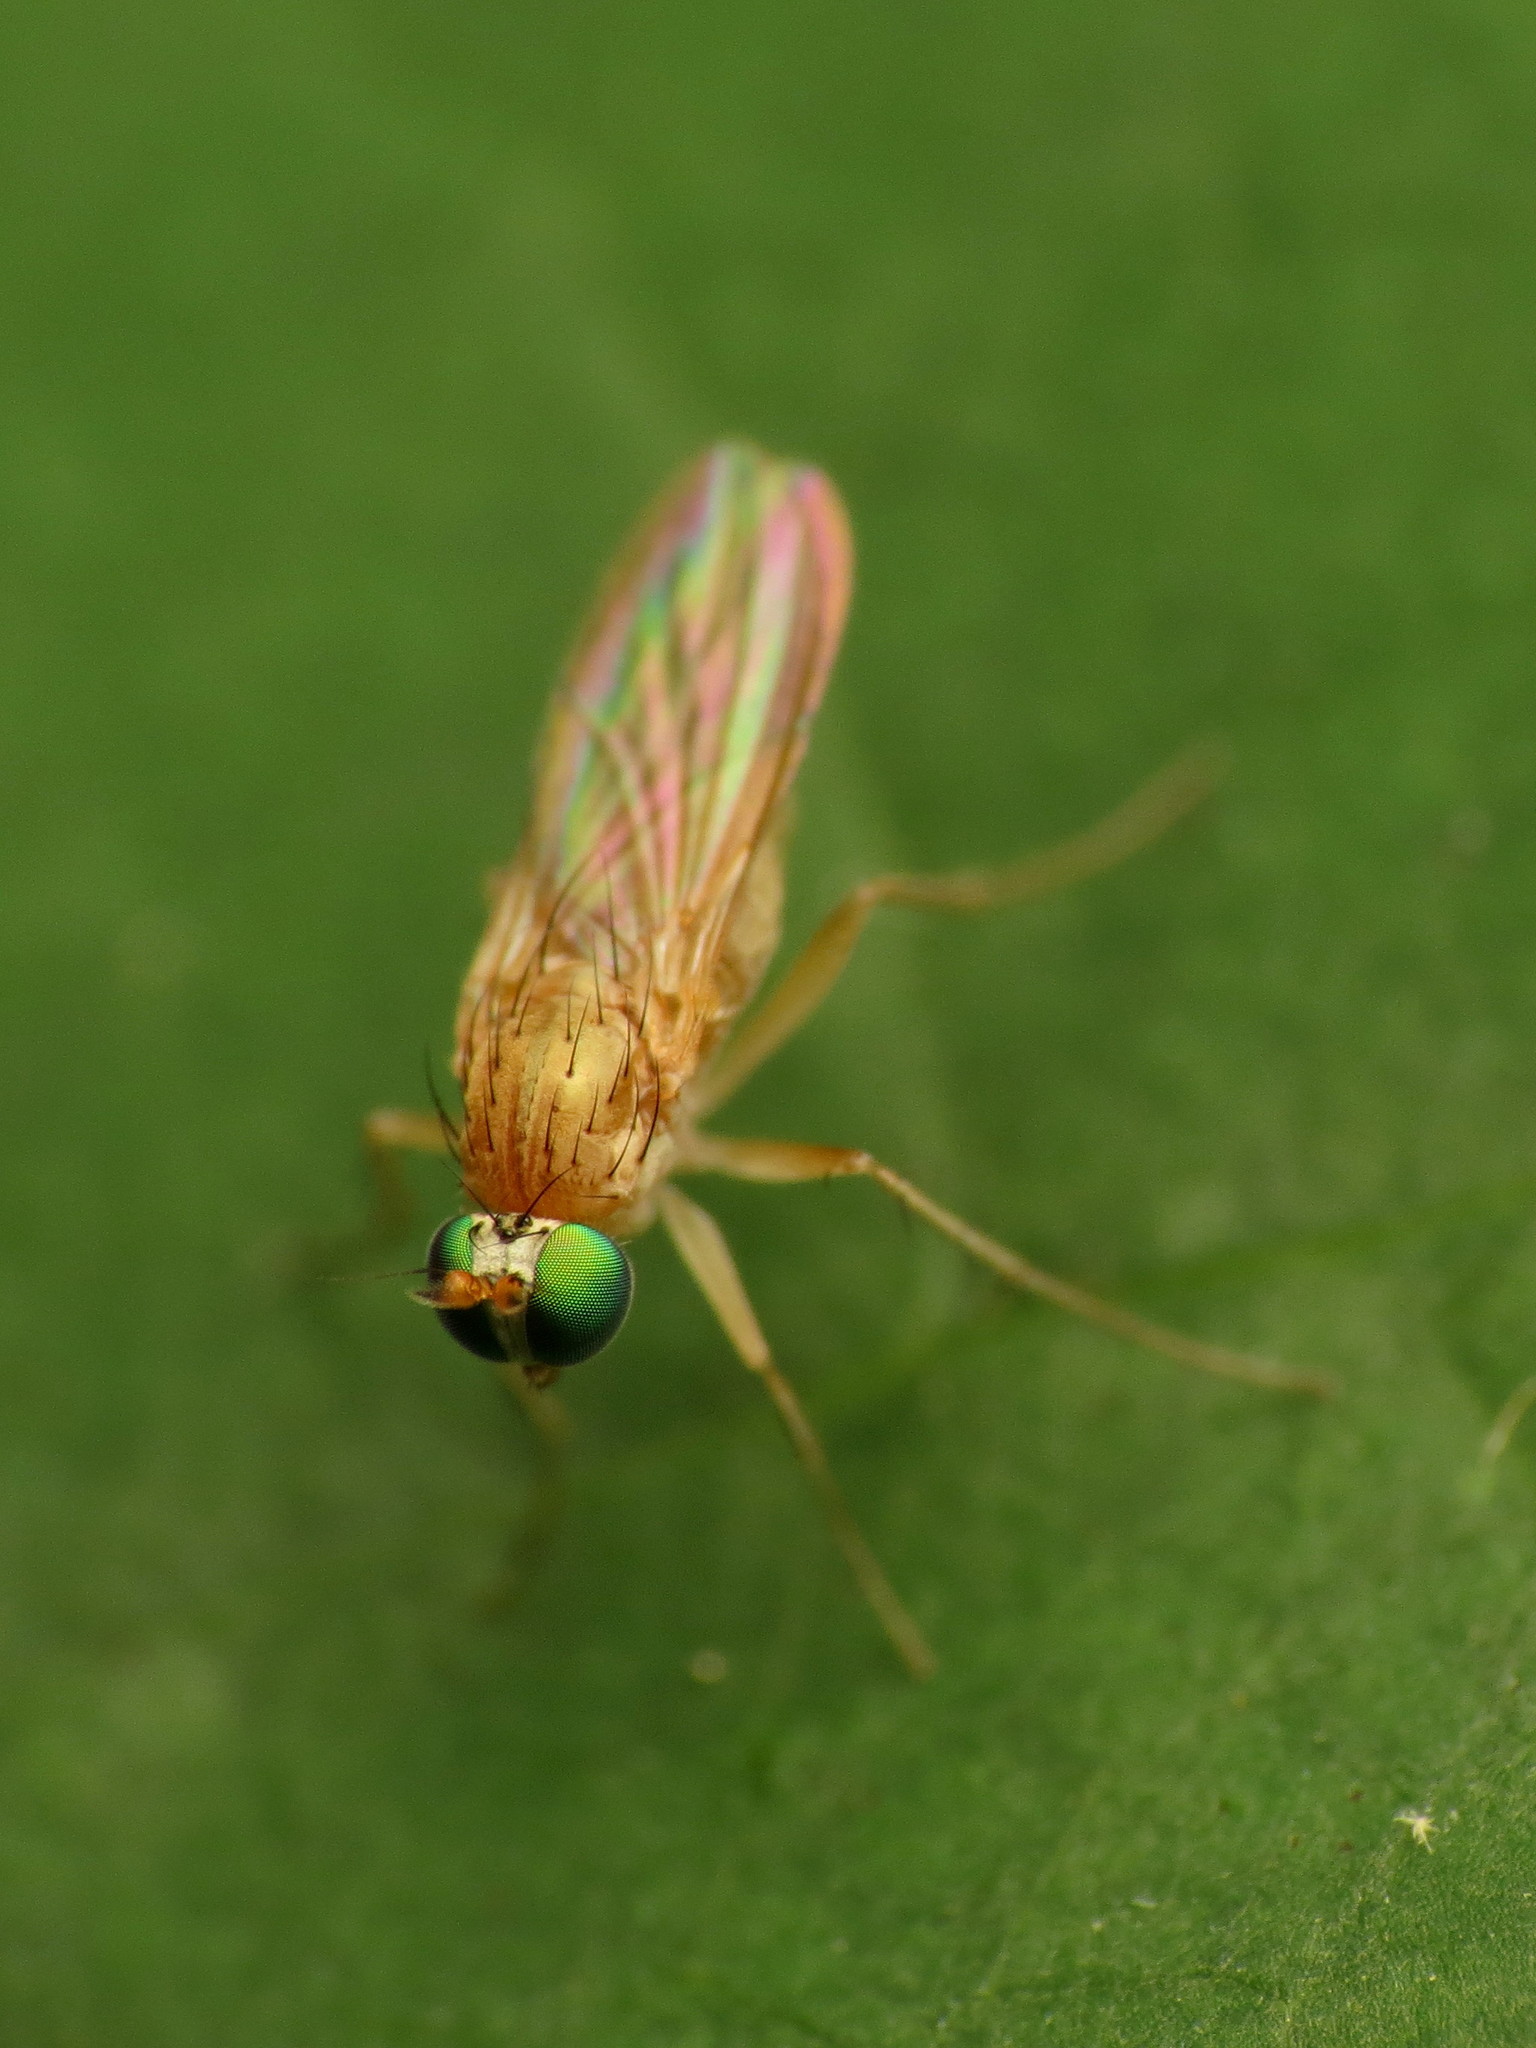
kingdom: Animalia
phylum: Arthropoda
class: Insecta
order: Diptera
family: Dolichopodidae
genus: Gymnopternus
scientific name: Gymnopternus flavus
